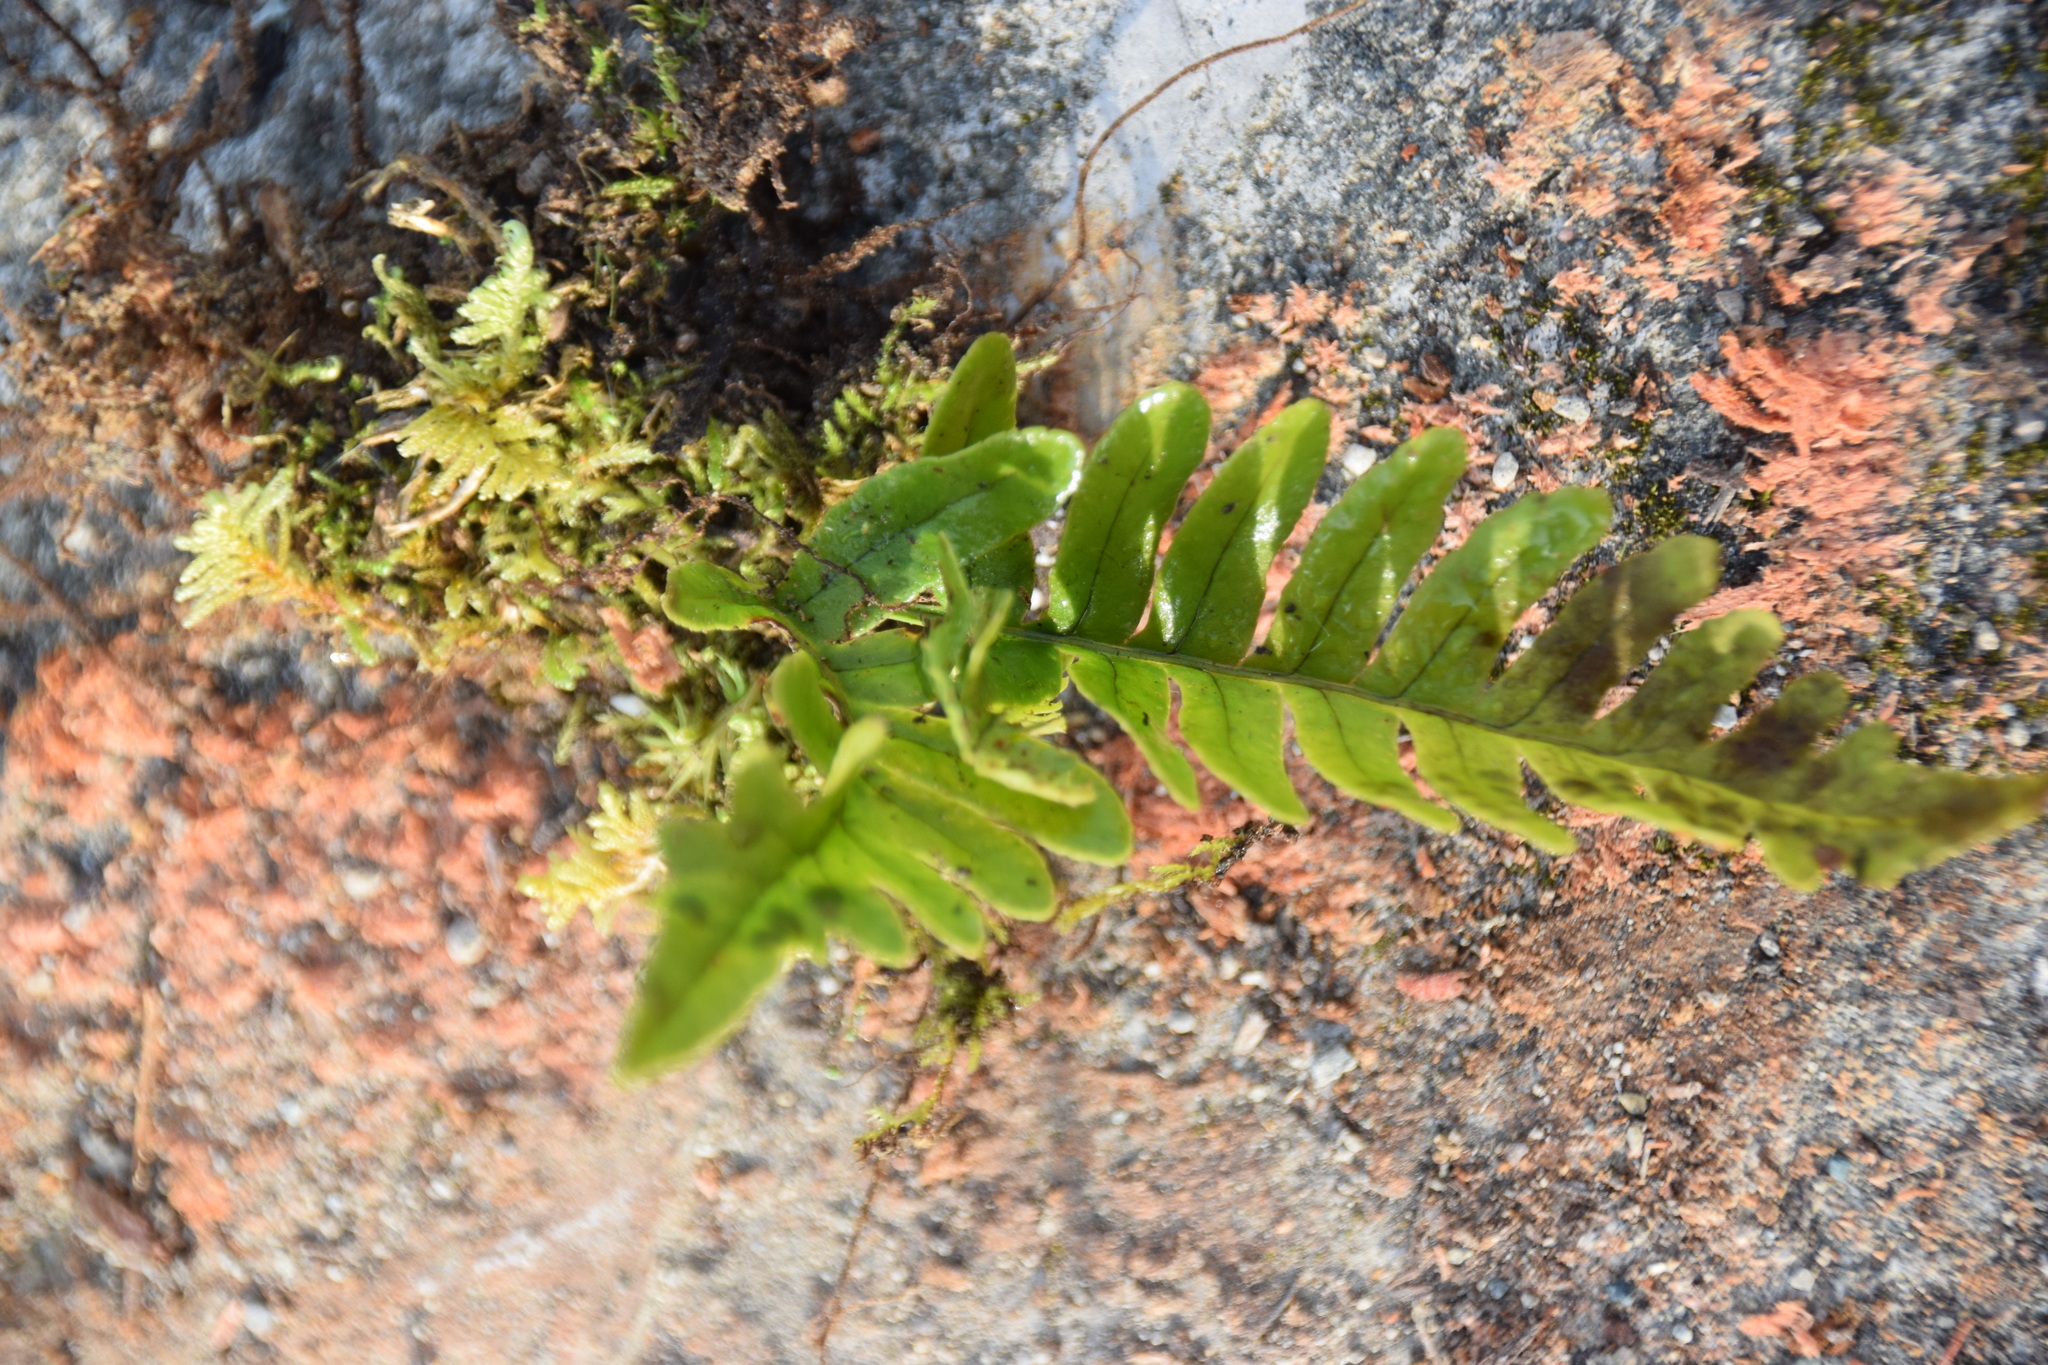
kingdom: Plantae
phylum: Tracheophyta
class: Polypodiopsida
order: Polypodiales
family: Polypodiaceae
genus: Polypodium
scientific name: Polypodium virginianum
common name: American wall fern
